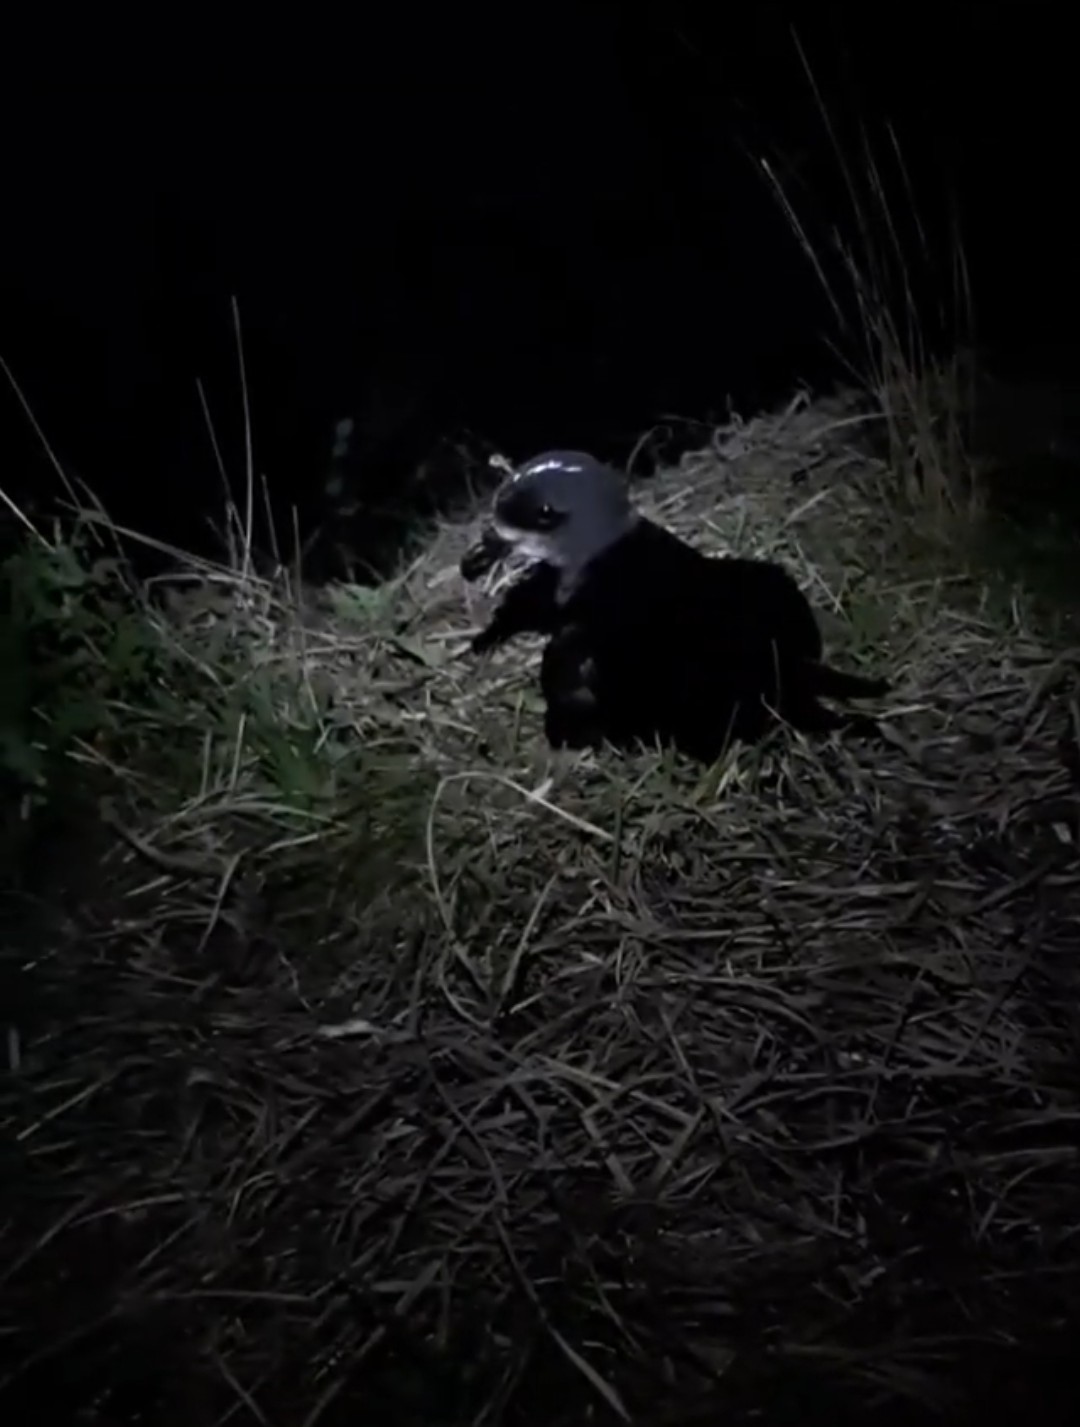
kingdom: Animalia
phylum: Chordata
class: Aves
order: Procellariiformes
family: Procellariidae
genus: Pterodroma
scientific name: Pterodroma macroptera
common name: Great-winged petrel
